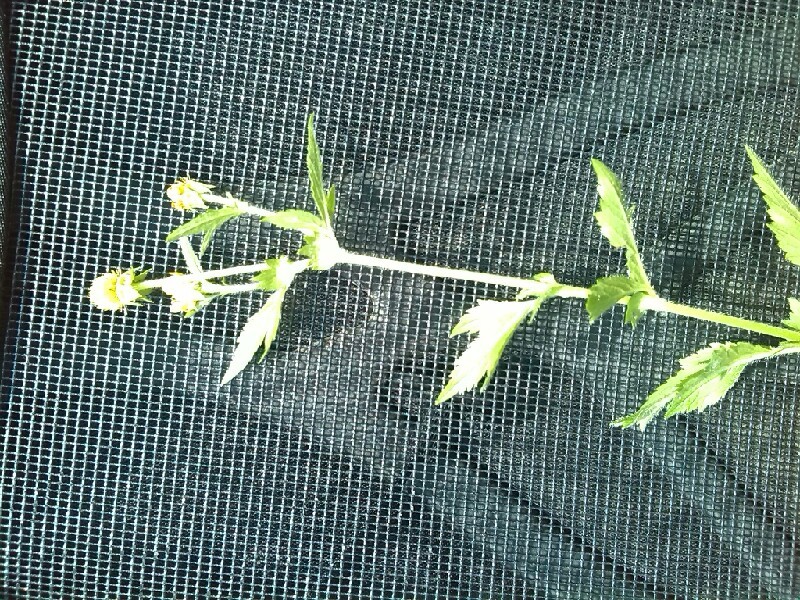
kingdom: Plantae
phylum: Tracheophyta
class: Magnoliopsida
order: Rosales
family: Rosaceae
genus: Geum
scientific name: Geum aleppicum
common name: Yellow avens
